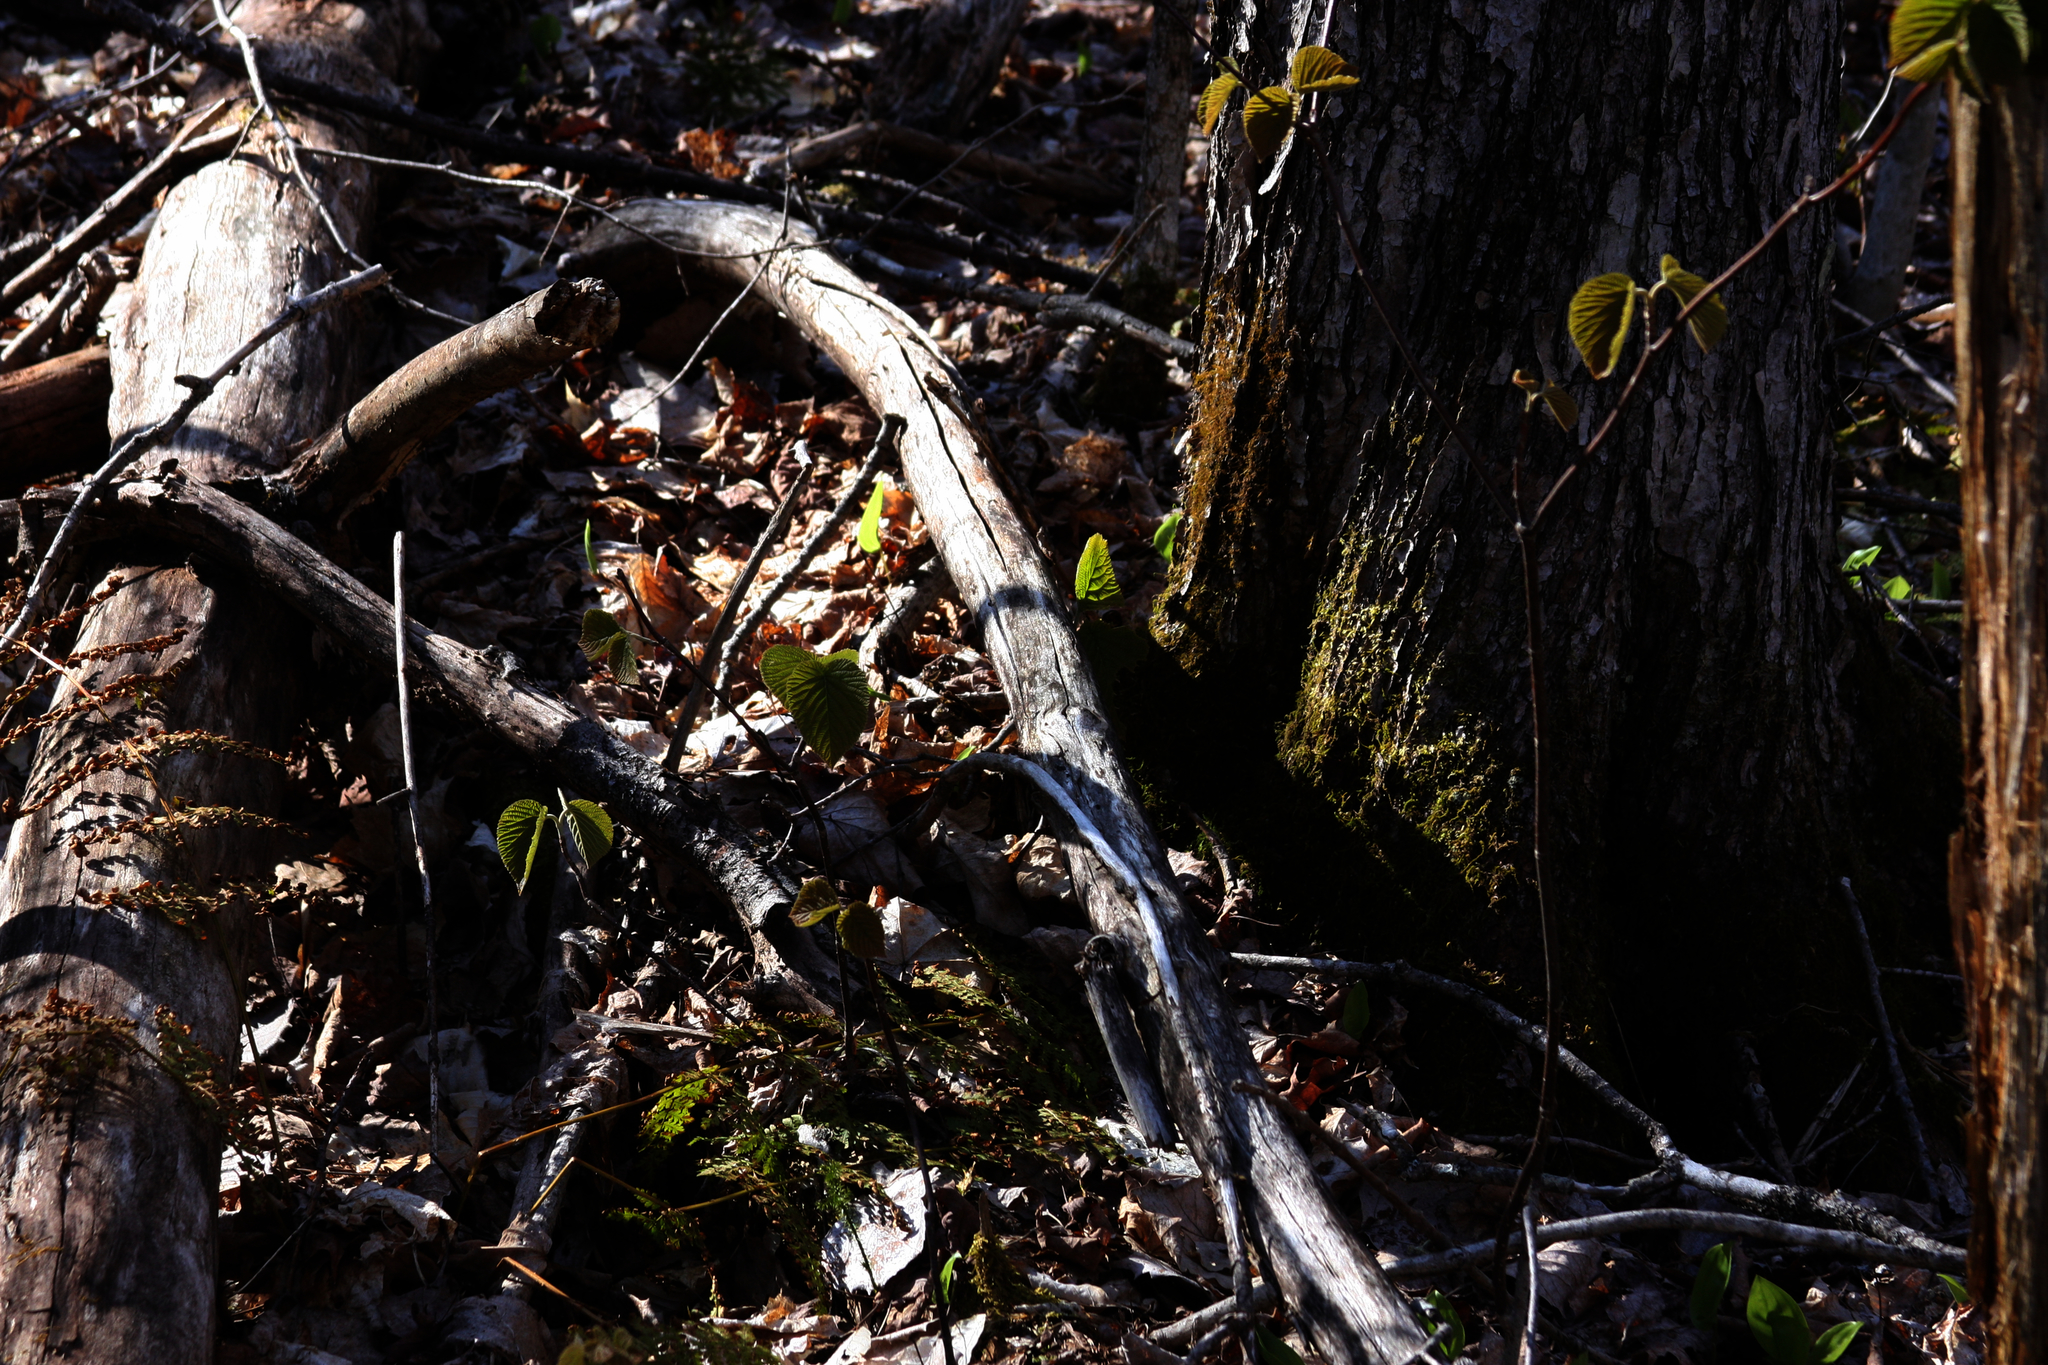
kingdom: Plantae
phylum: Tracheophyta
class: Magnoliopsida
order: Dipsacales
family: Viburnaceae
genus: Viburnum
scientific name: Viburnum lantanoides
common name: Hobblebush
